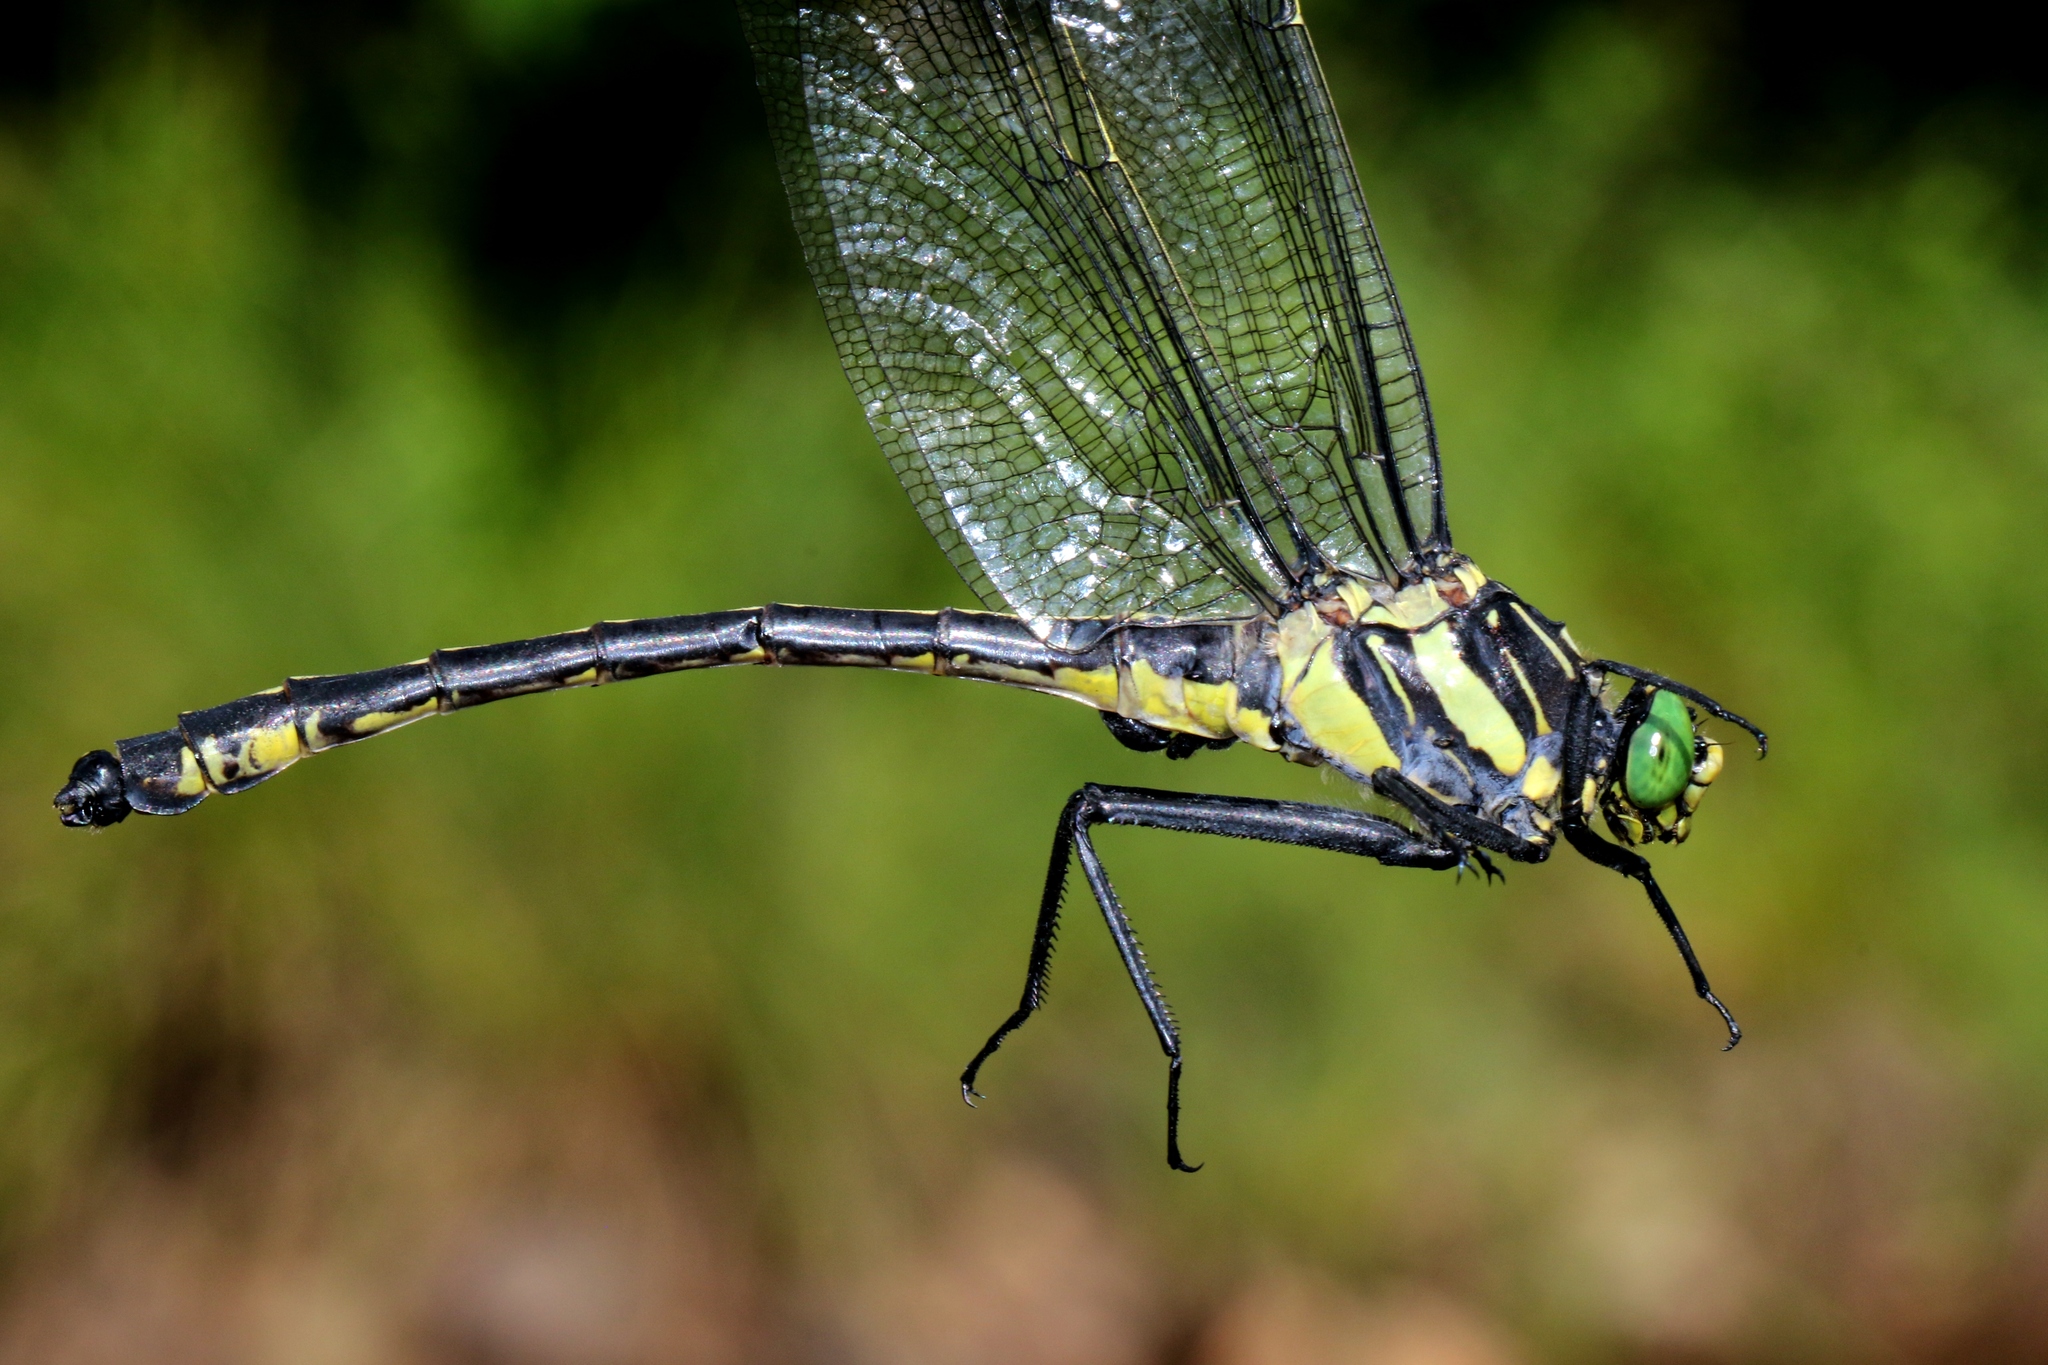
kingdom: Animalia
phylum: Arthropoda
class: Insecta
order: Odonata
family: Gomphidae
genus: Hagenius
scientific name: Hagenius brevistylus
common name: Dragonhunter
